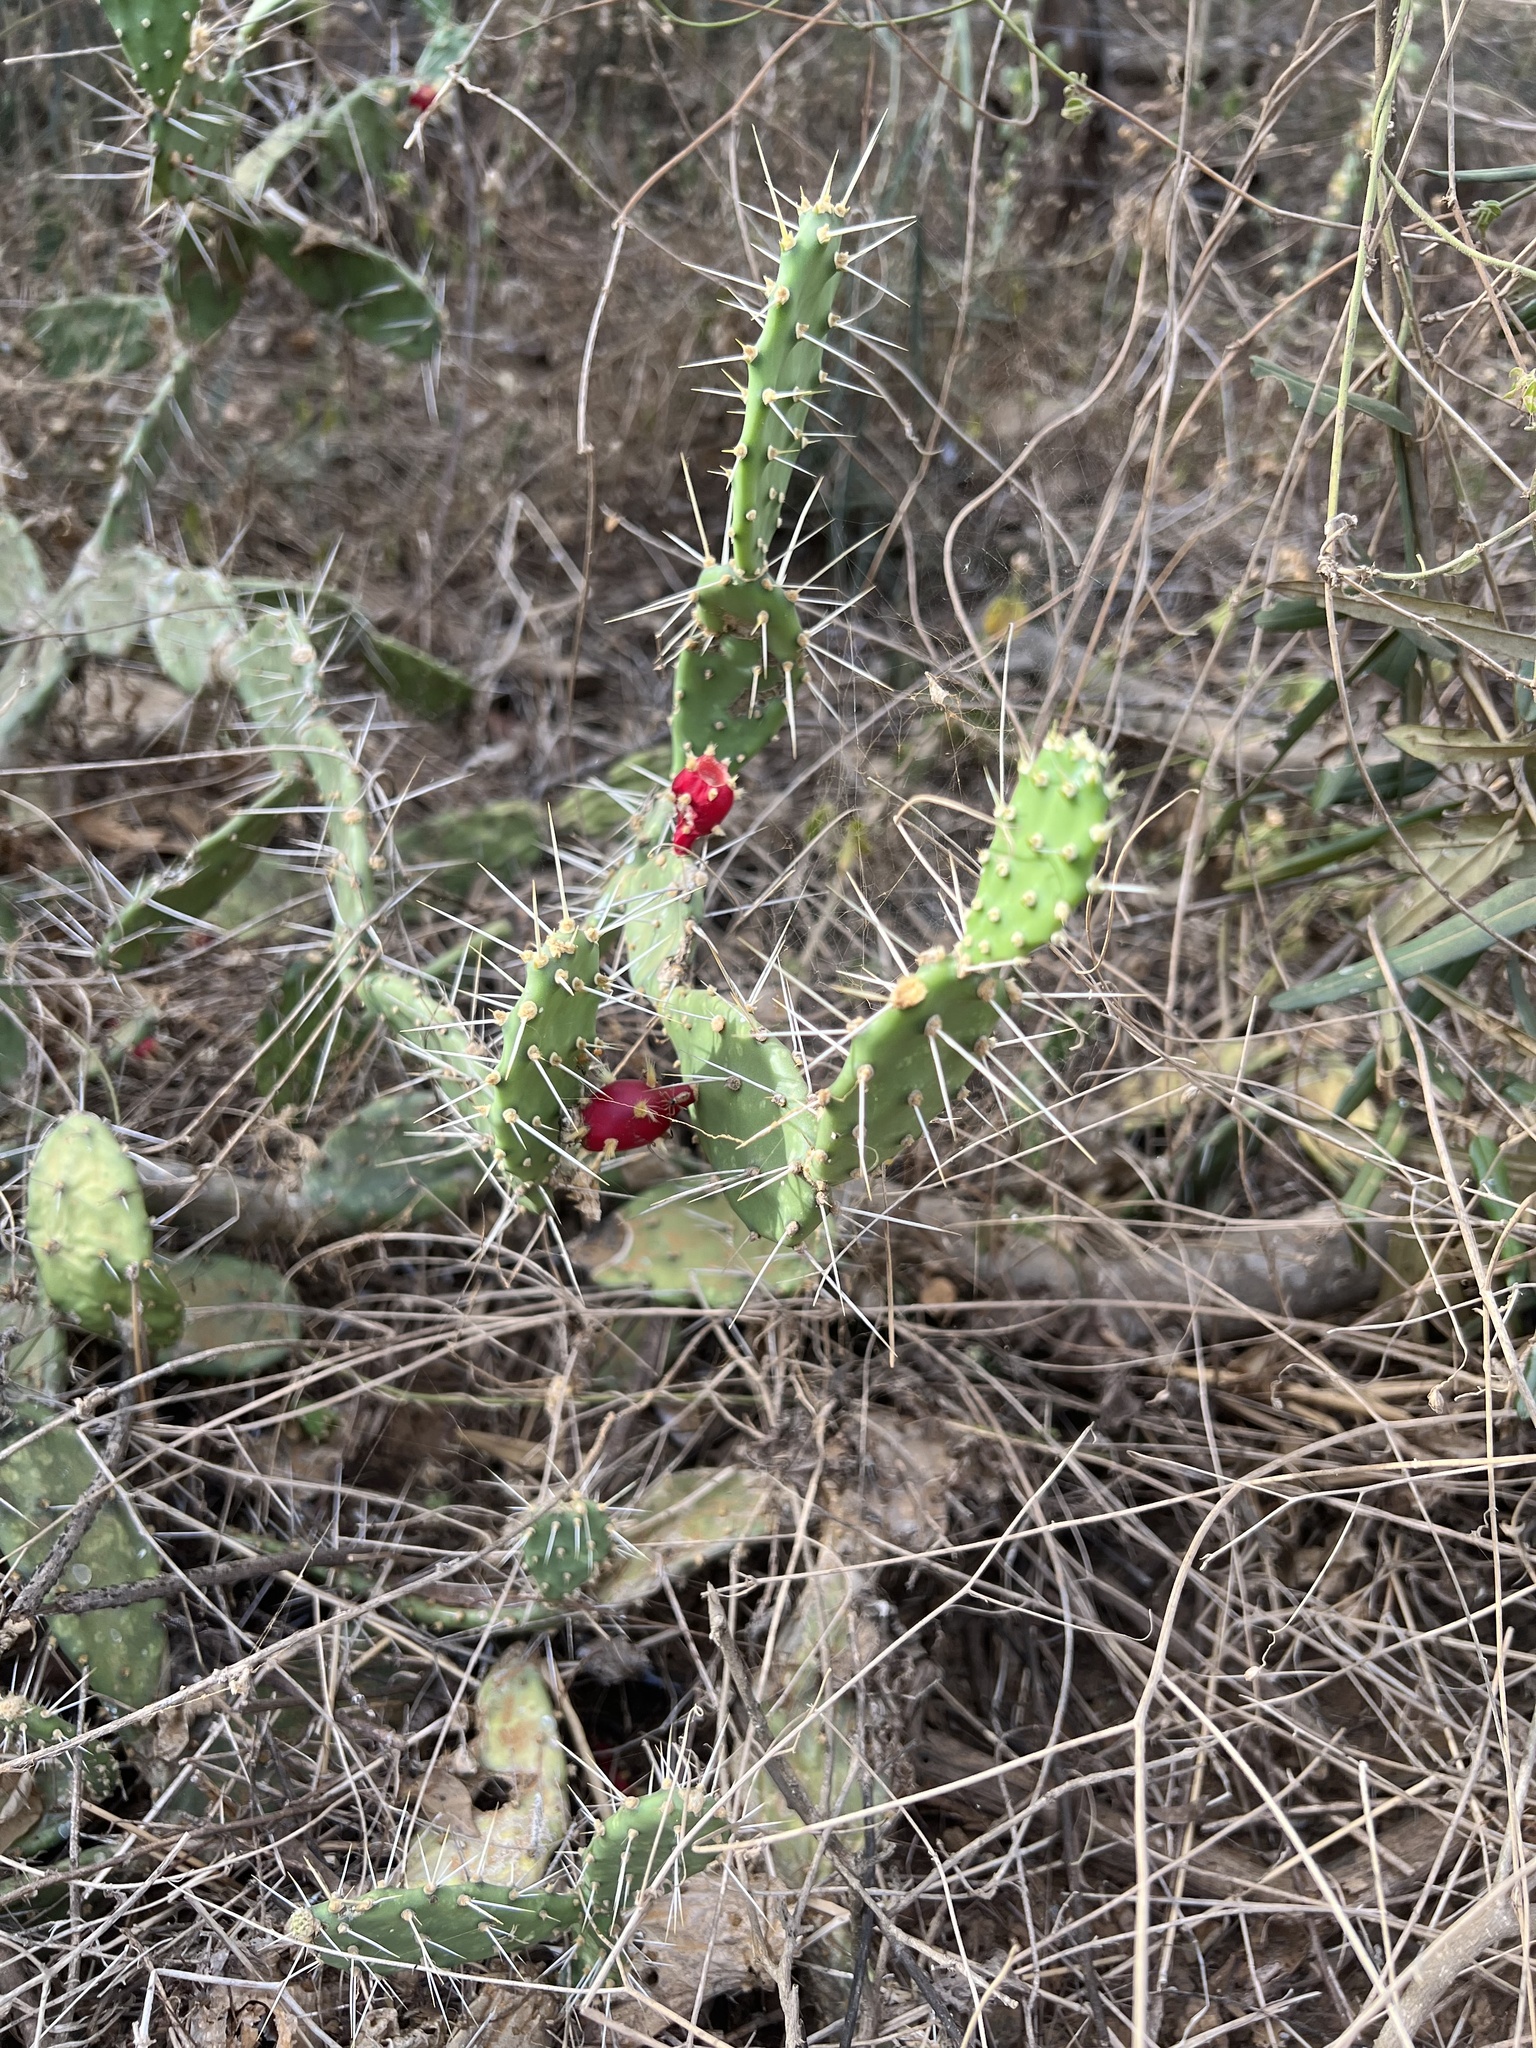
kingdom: Plantae
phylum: Tracheophyta
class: Magnoliopsida
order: Caryophyllales
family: Cactaceae
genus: Opuntia
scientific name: Opuntia caracassana
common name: Common prickly pear
